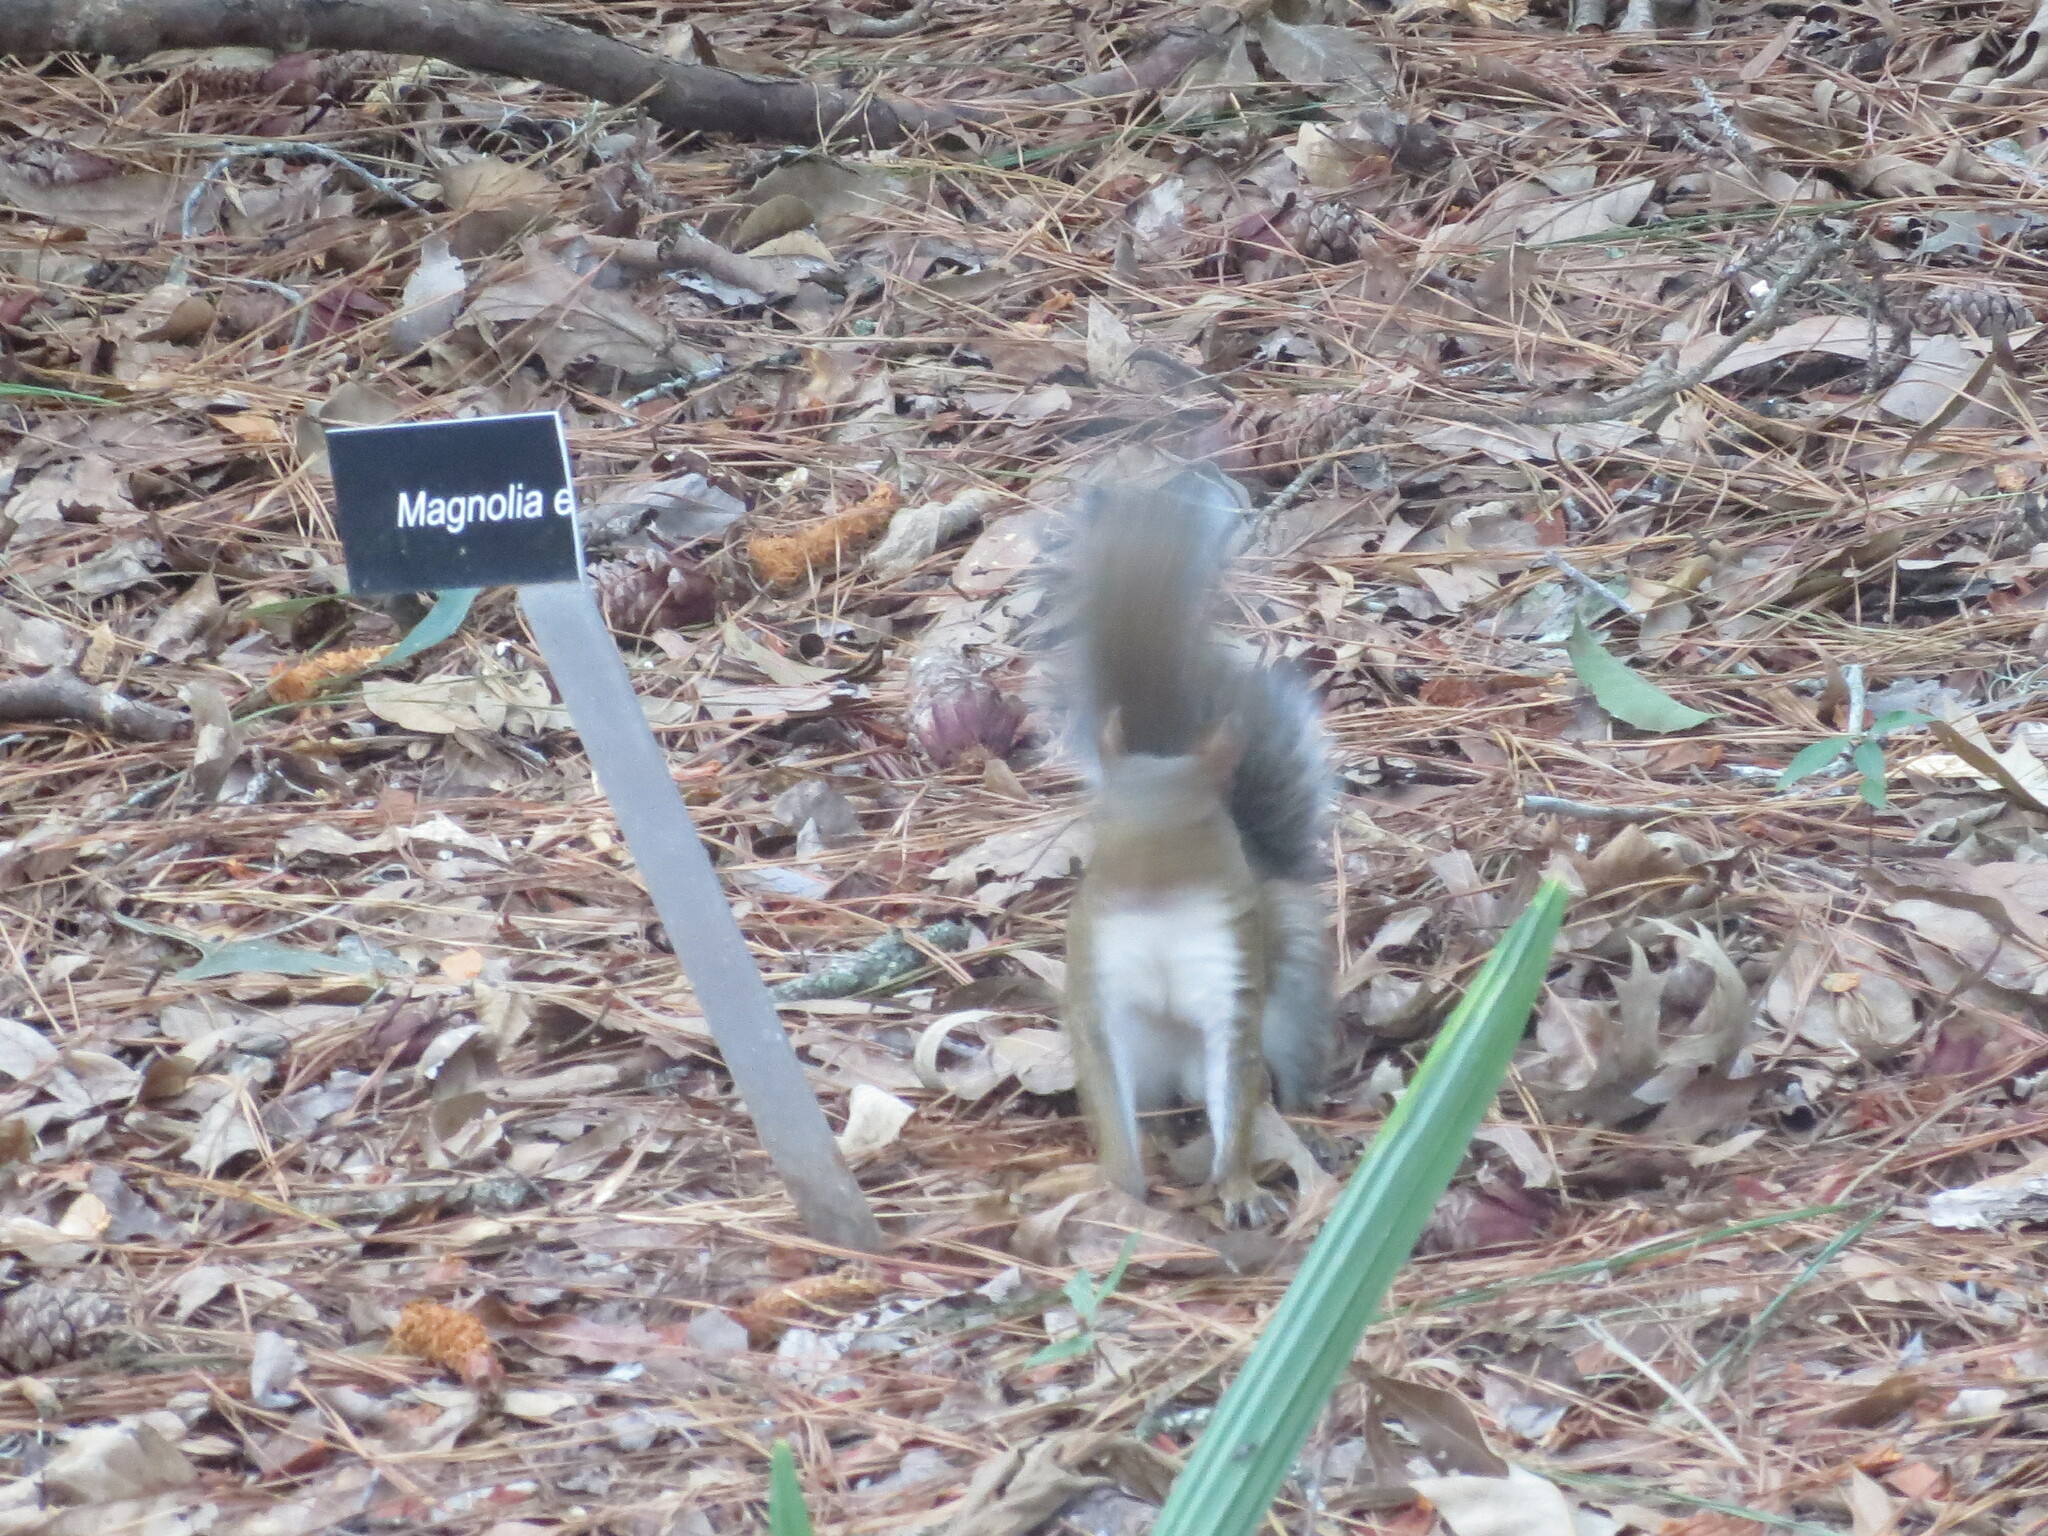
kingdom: Animalia
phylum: Chordata
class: Mammalia
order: Rodentia
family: Sciuridae
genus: Sciurus
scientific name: Sciurus carolinensis
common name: Eastern gray squirrel
